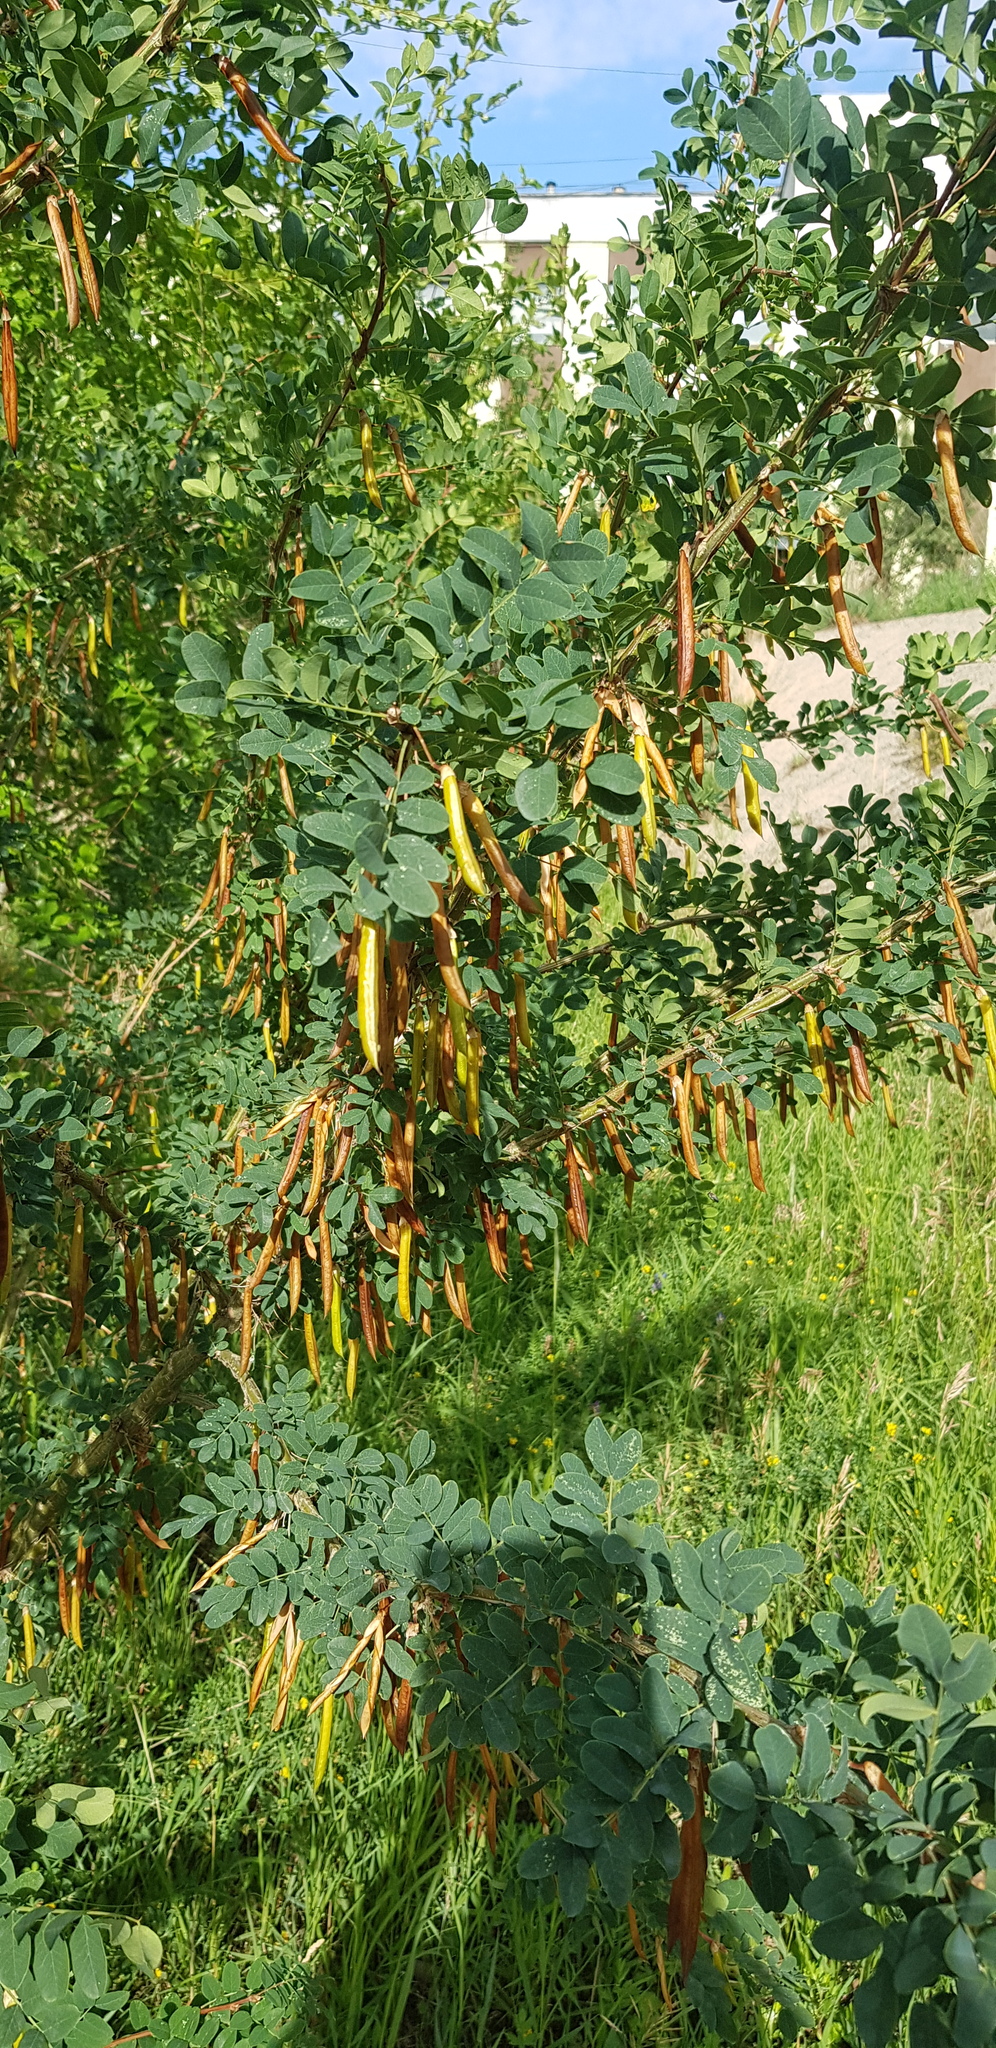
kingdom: Plantae
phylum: Tracheophyta
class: Magnoliopsida
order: Fabales
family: Fabaceae
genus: Caragana
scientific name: Caragana arborescens
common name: Siberian peashrub
